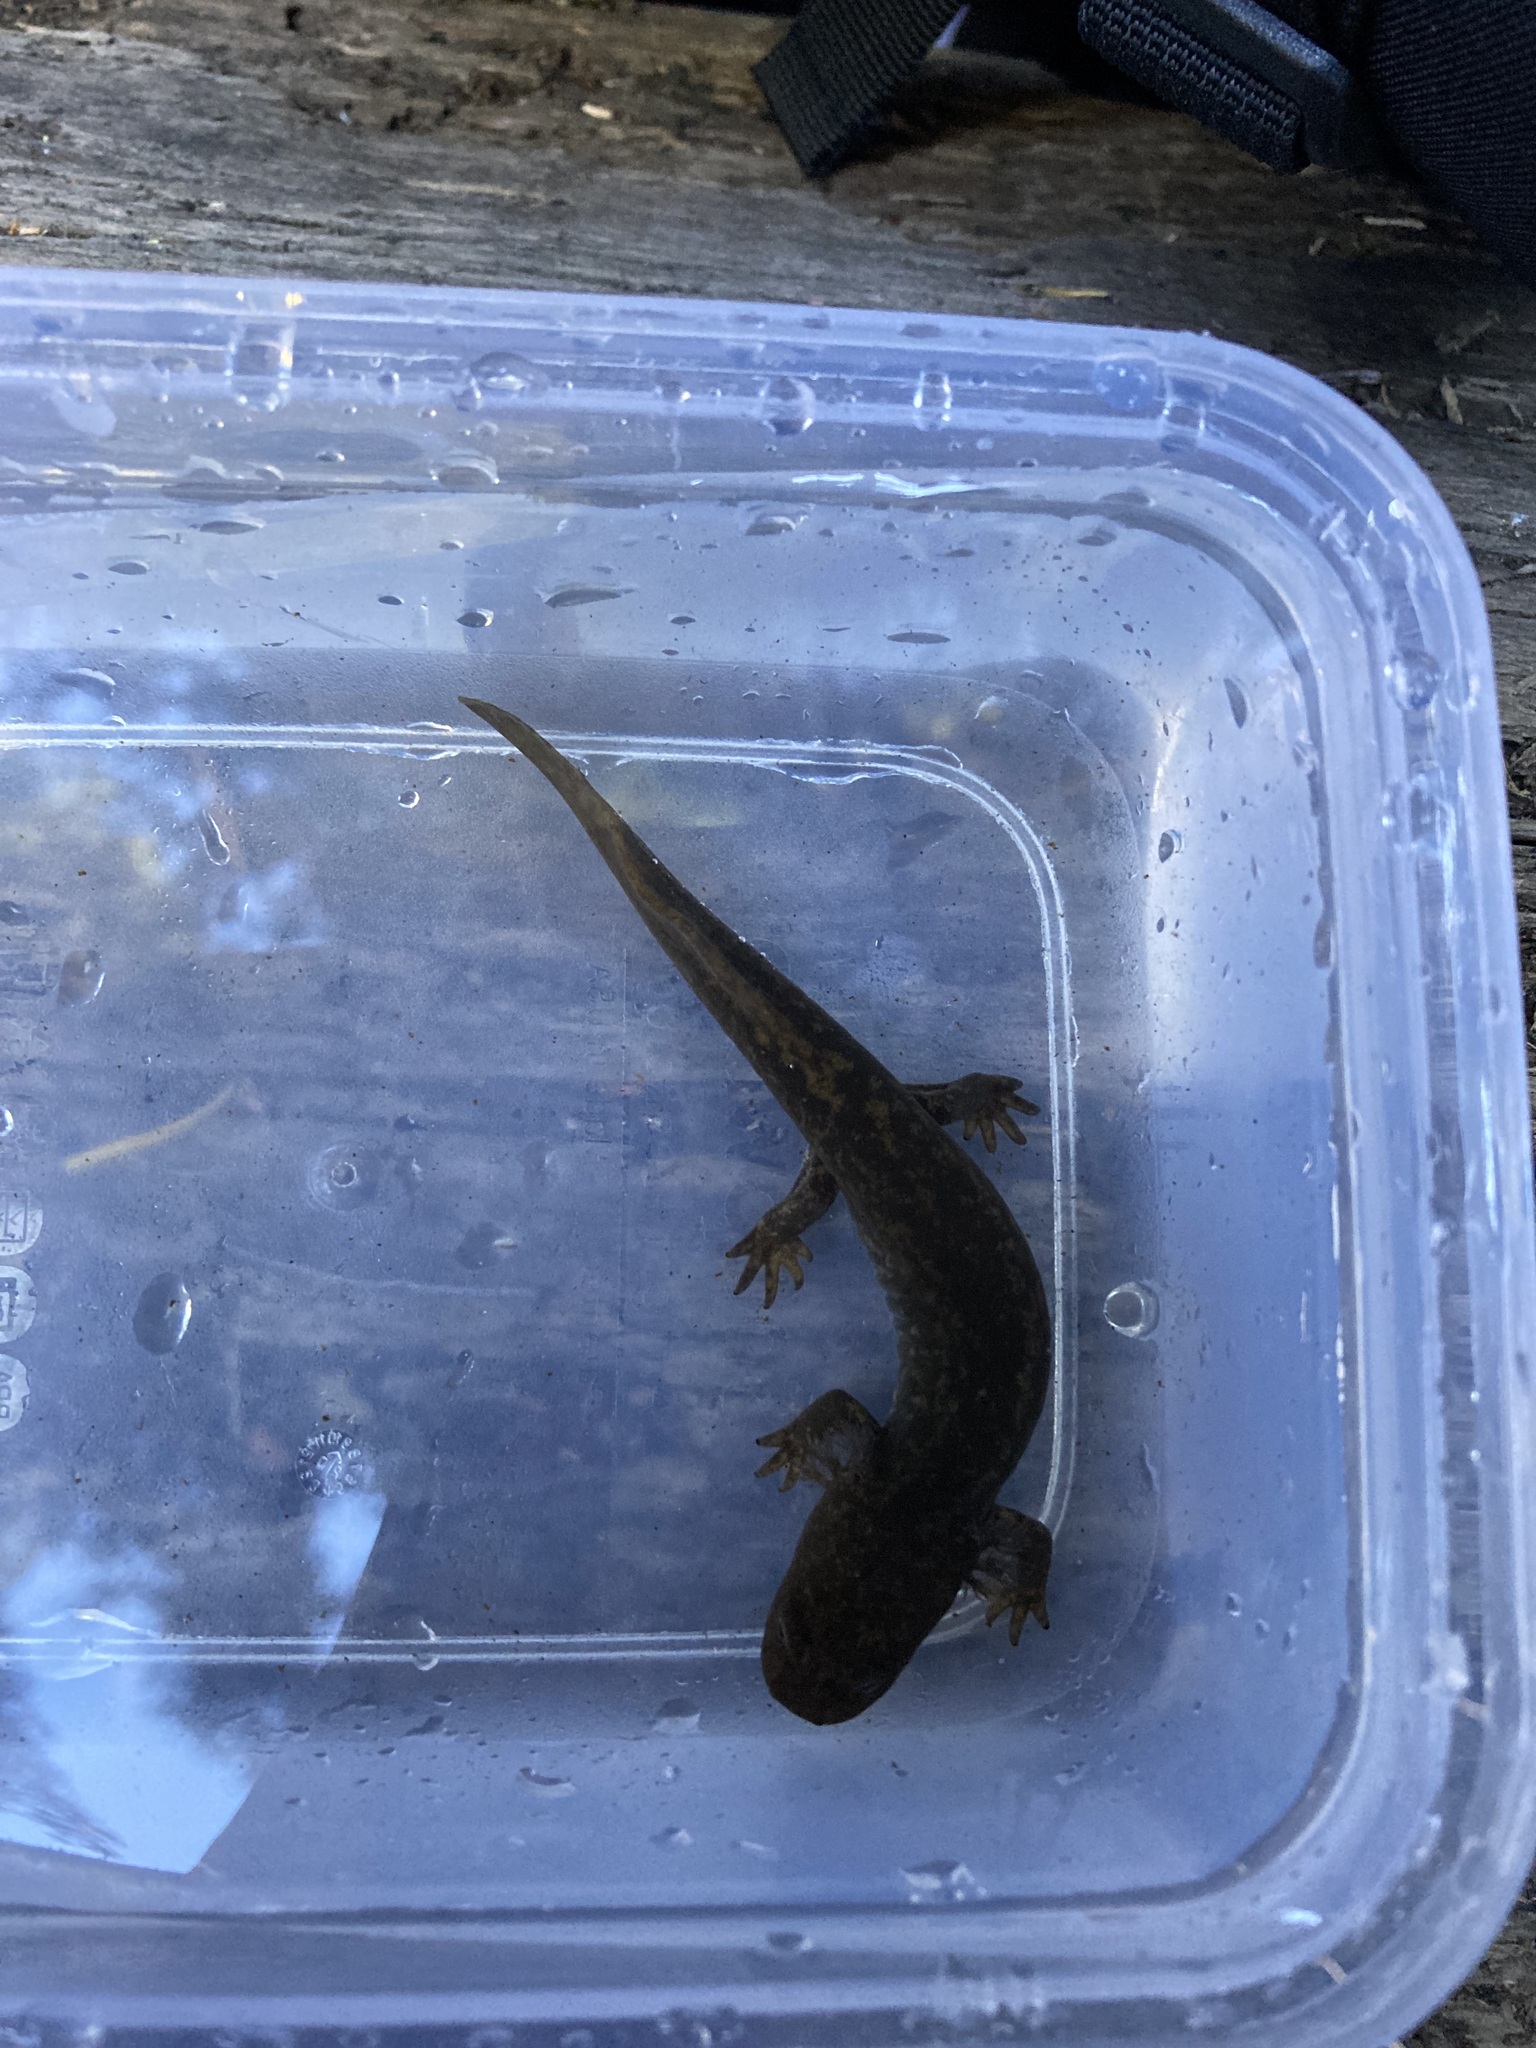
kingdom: Animalia
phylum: Chordata
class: Amphibia
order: Caudata
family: Ambystomatidae
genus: Dicamptodon
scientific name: Dicamptodon copei
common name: Cope's giant salamander
